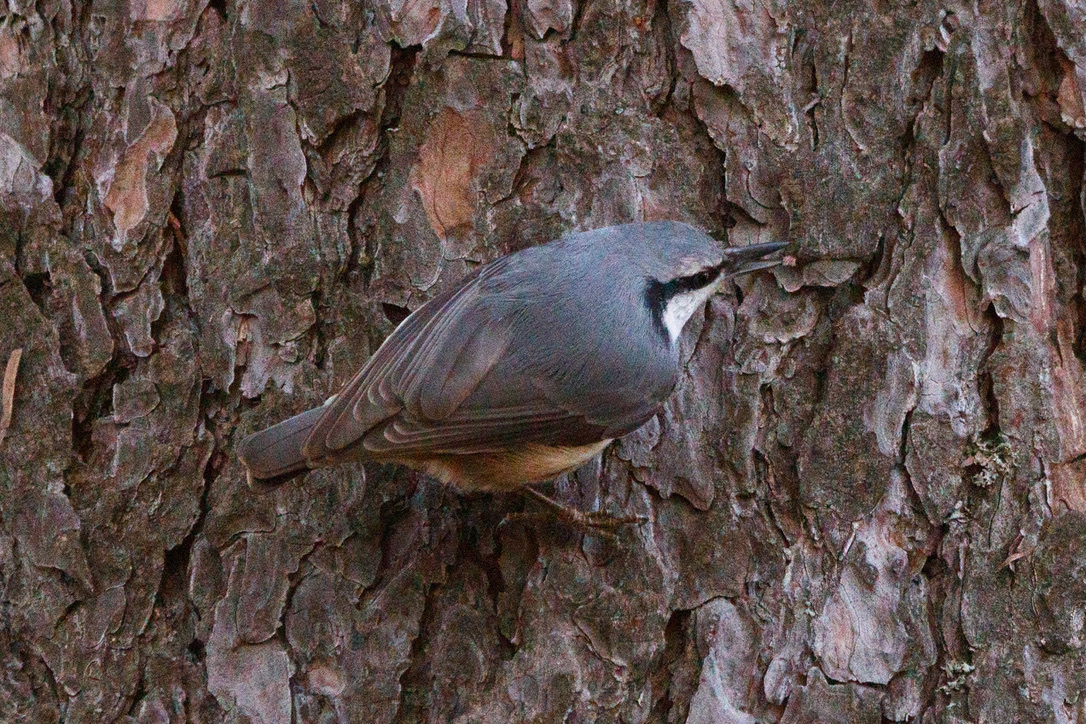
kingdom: Animalia
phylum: Chordata
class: Aves
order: Passeriformes
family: Sittidae
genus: Sitta
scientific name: Sitta europaea
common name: Eurasian nuthatch
